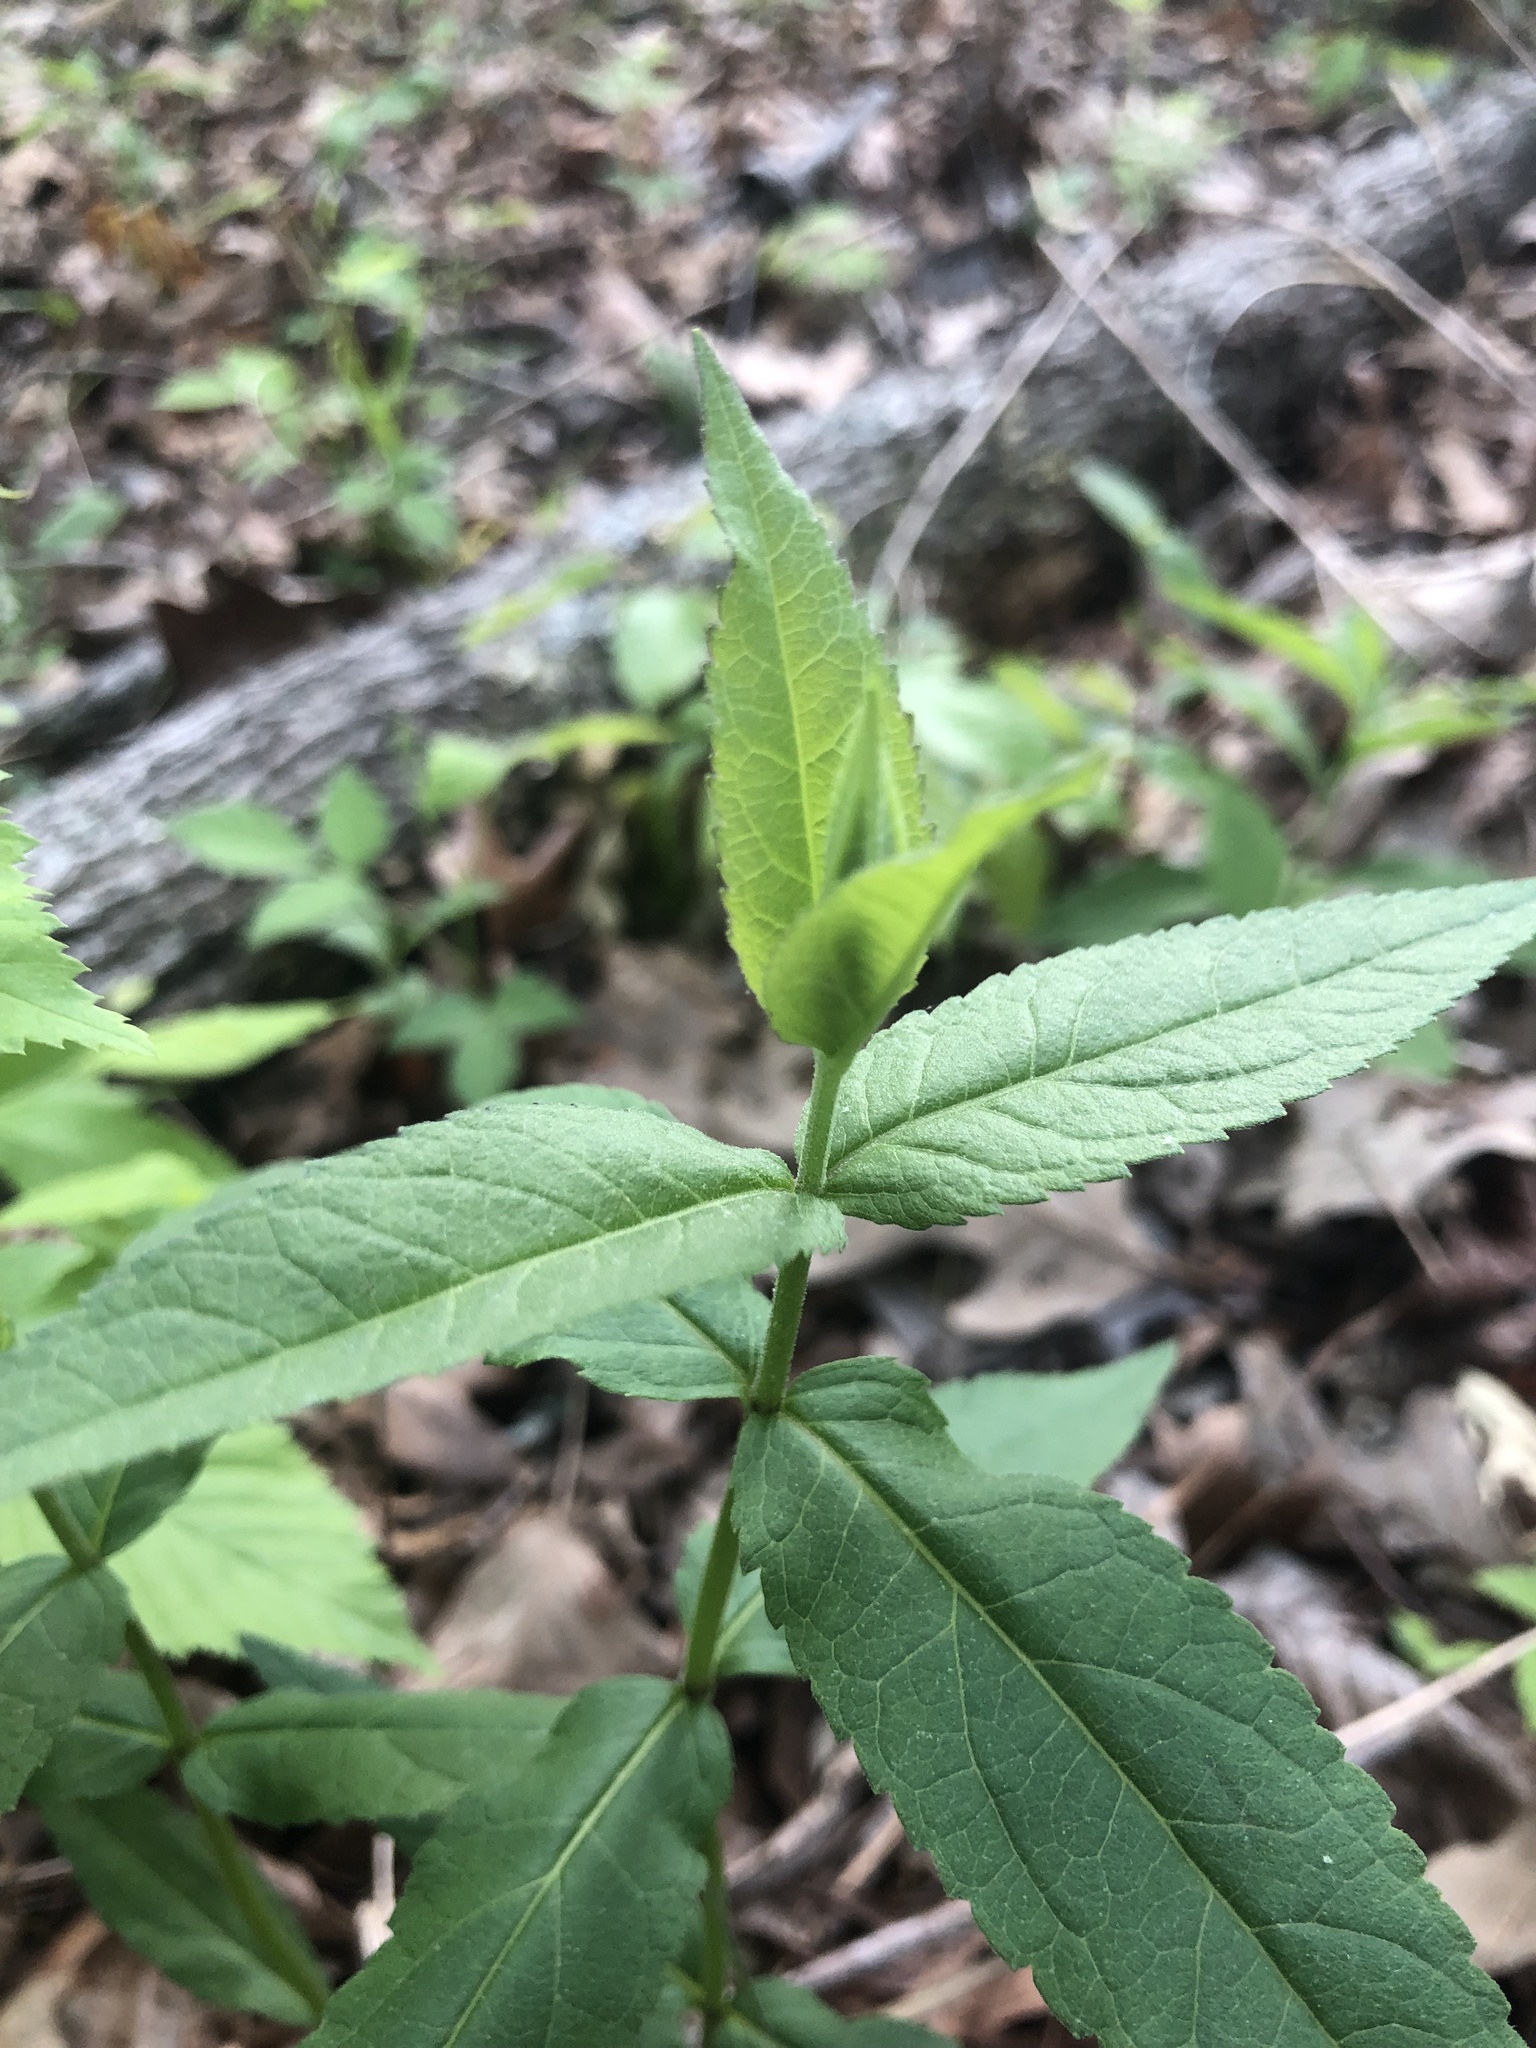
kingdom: Plantae
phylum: Tracheophyta
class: Magnoliopsida
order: Asterales
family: Asteraceae
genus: Eupatorium
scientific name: Eupatorium godfreyanum
